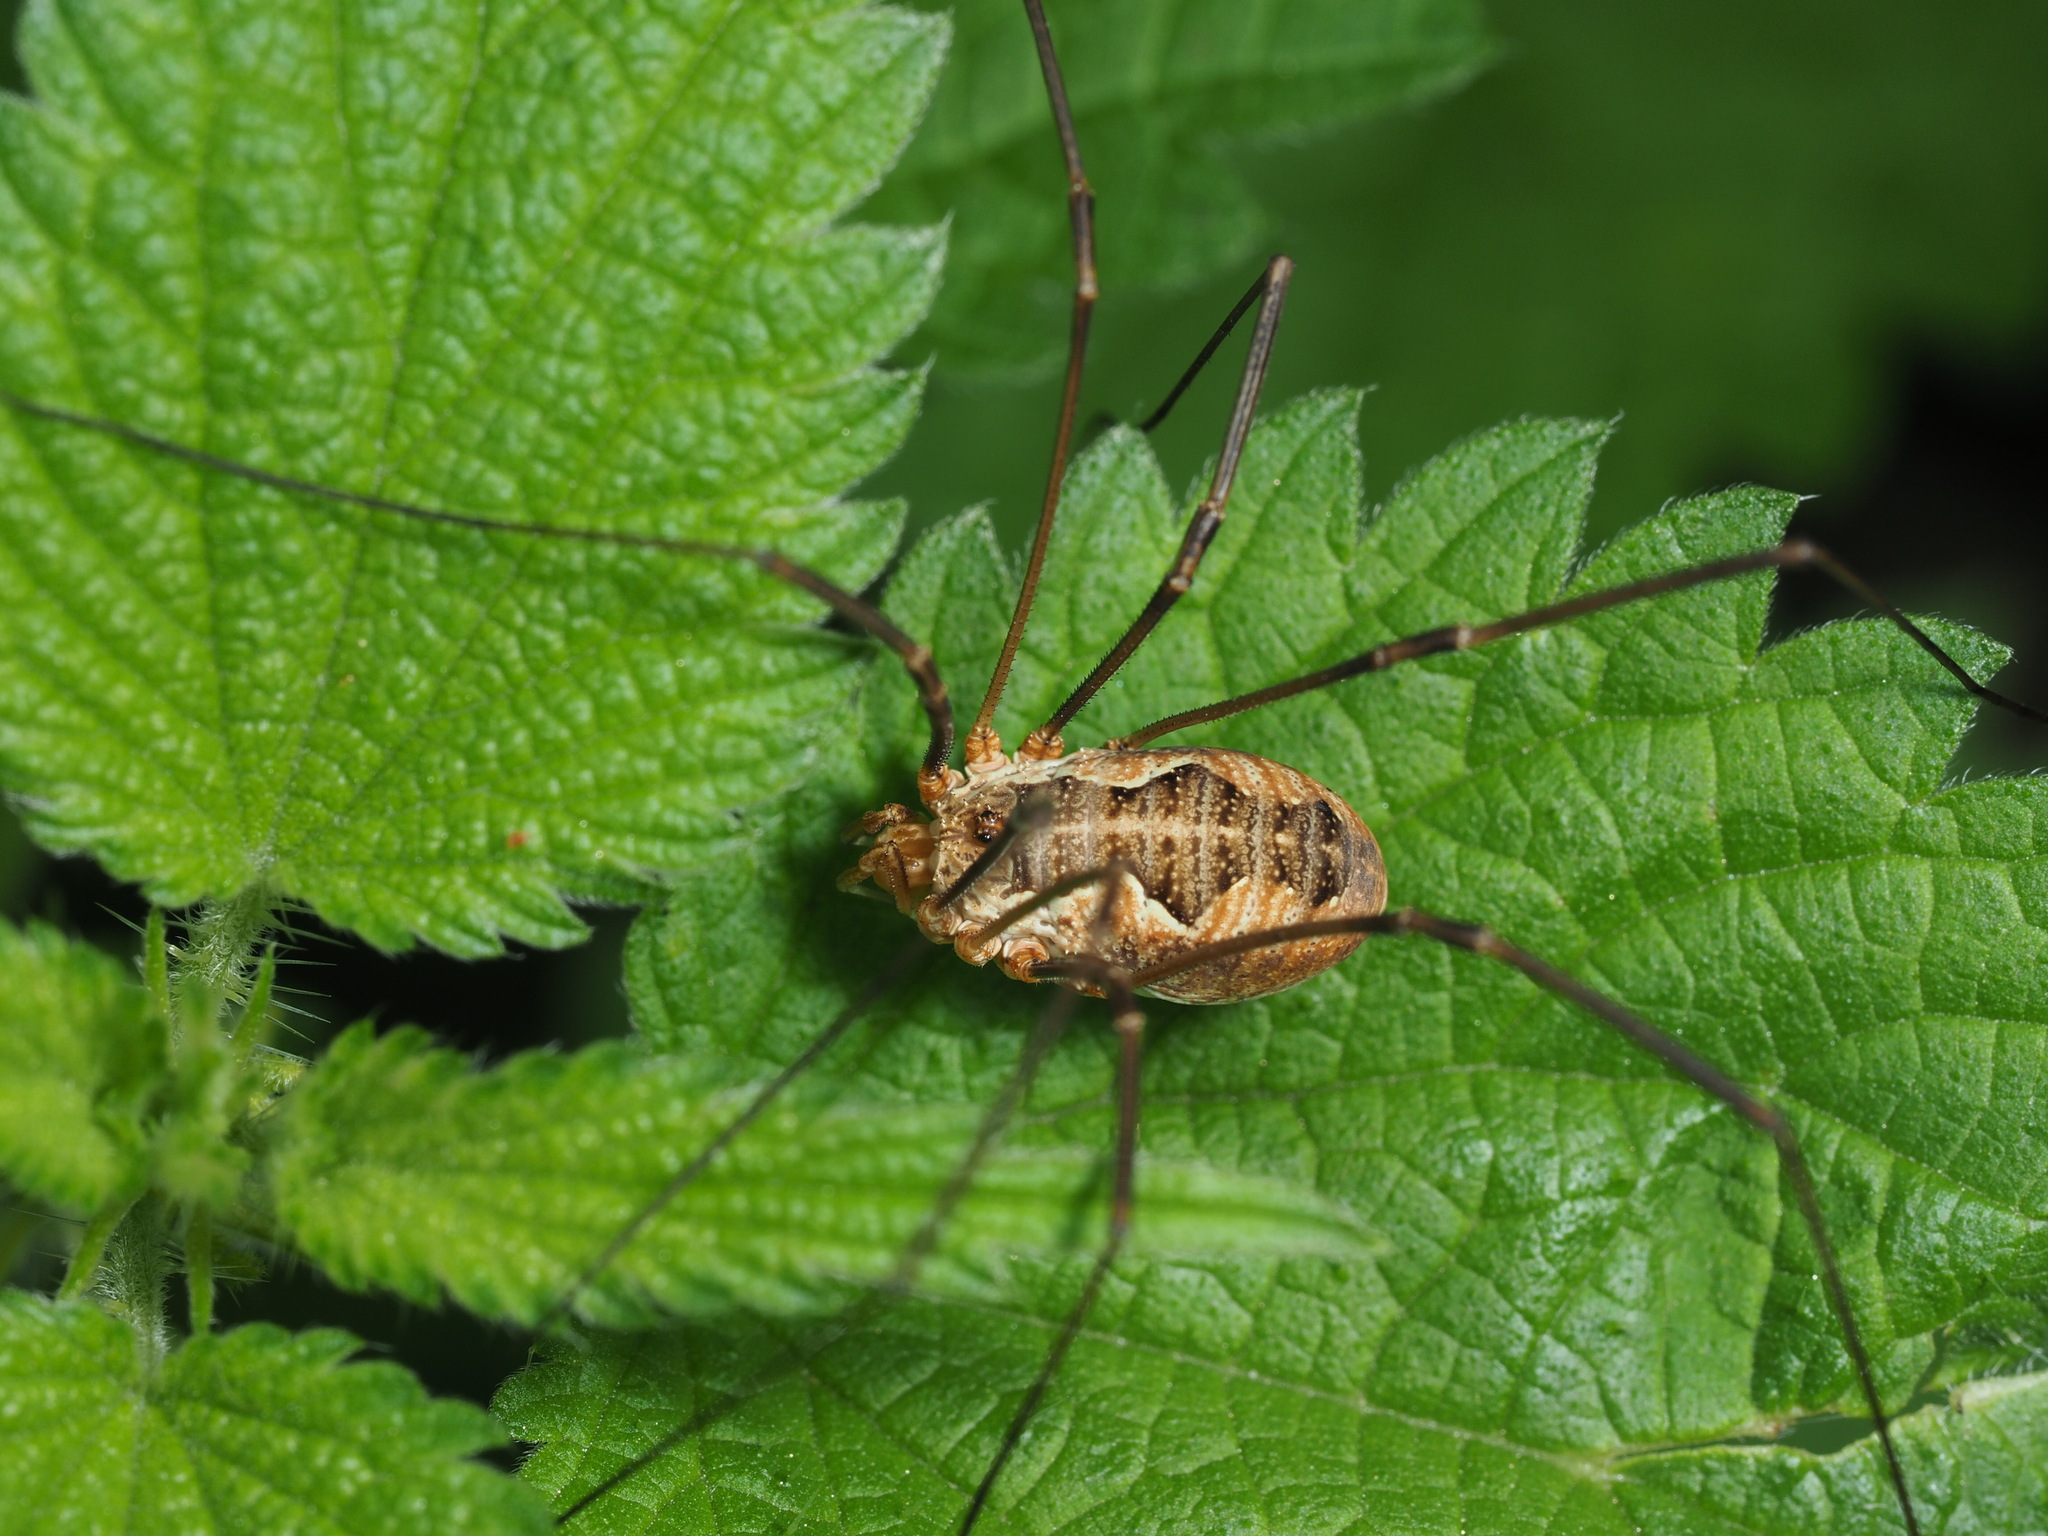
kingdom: Animalia
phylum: Arthropoda
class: Arachnida
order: Opiliones
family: Phalangiidae
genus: Phalangium
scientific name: Phalangium opilio
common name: Daddy longleg
